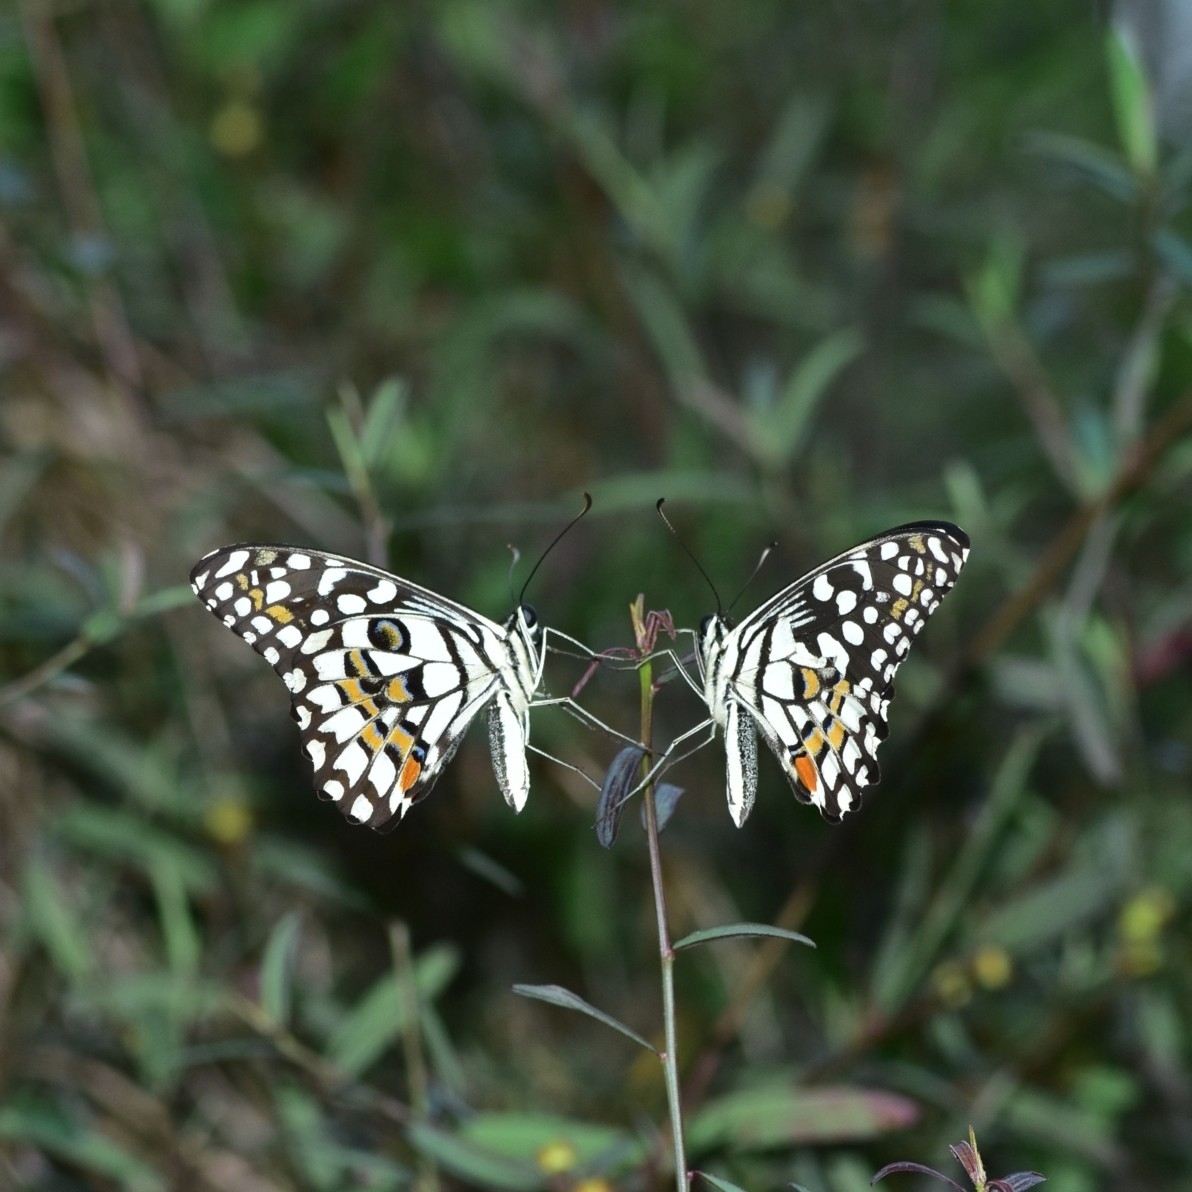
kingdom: Animalia
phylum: Arthropoda
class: Insecta
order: Lepidoptera
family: Papilionidae
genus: Papilio
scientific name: Papilio demoleus
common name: Lime butterfly
